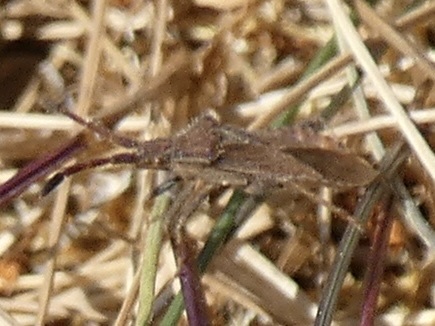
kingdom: Animalia
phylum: Arthropoda
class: Insecta
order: Hemiptera
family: Coreidae
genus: Coriomeris
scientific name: Coriomeris denticulatus
